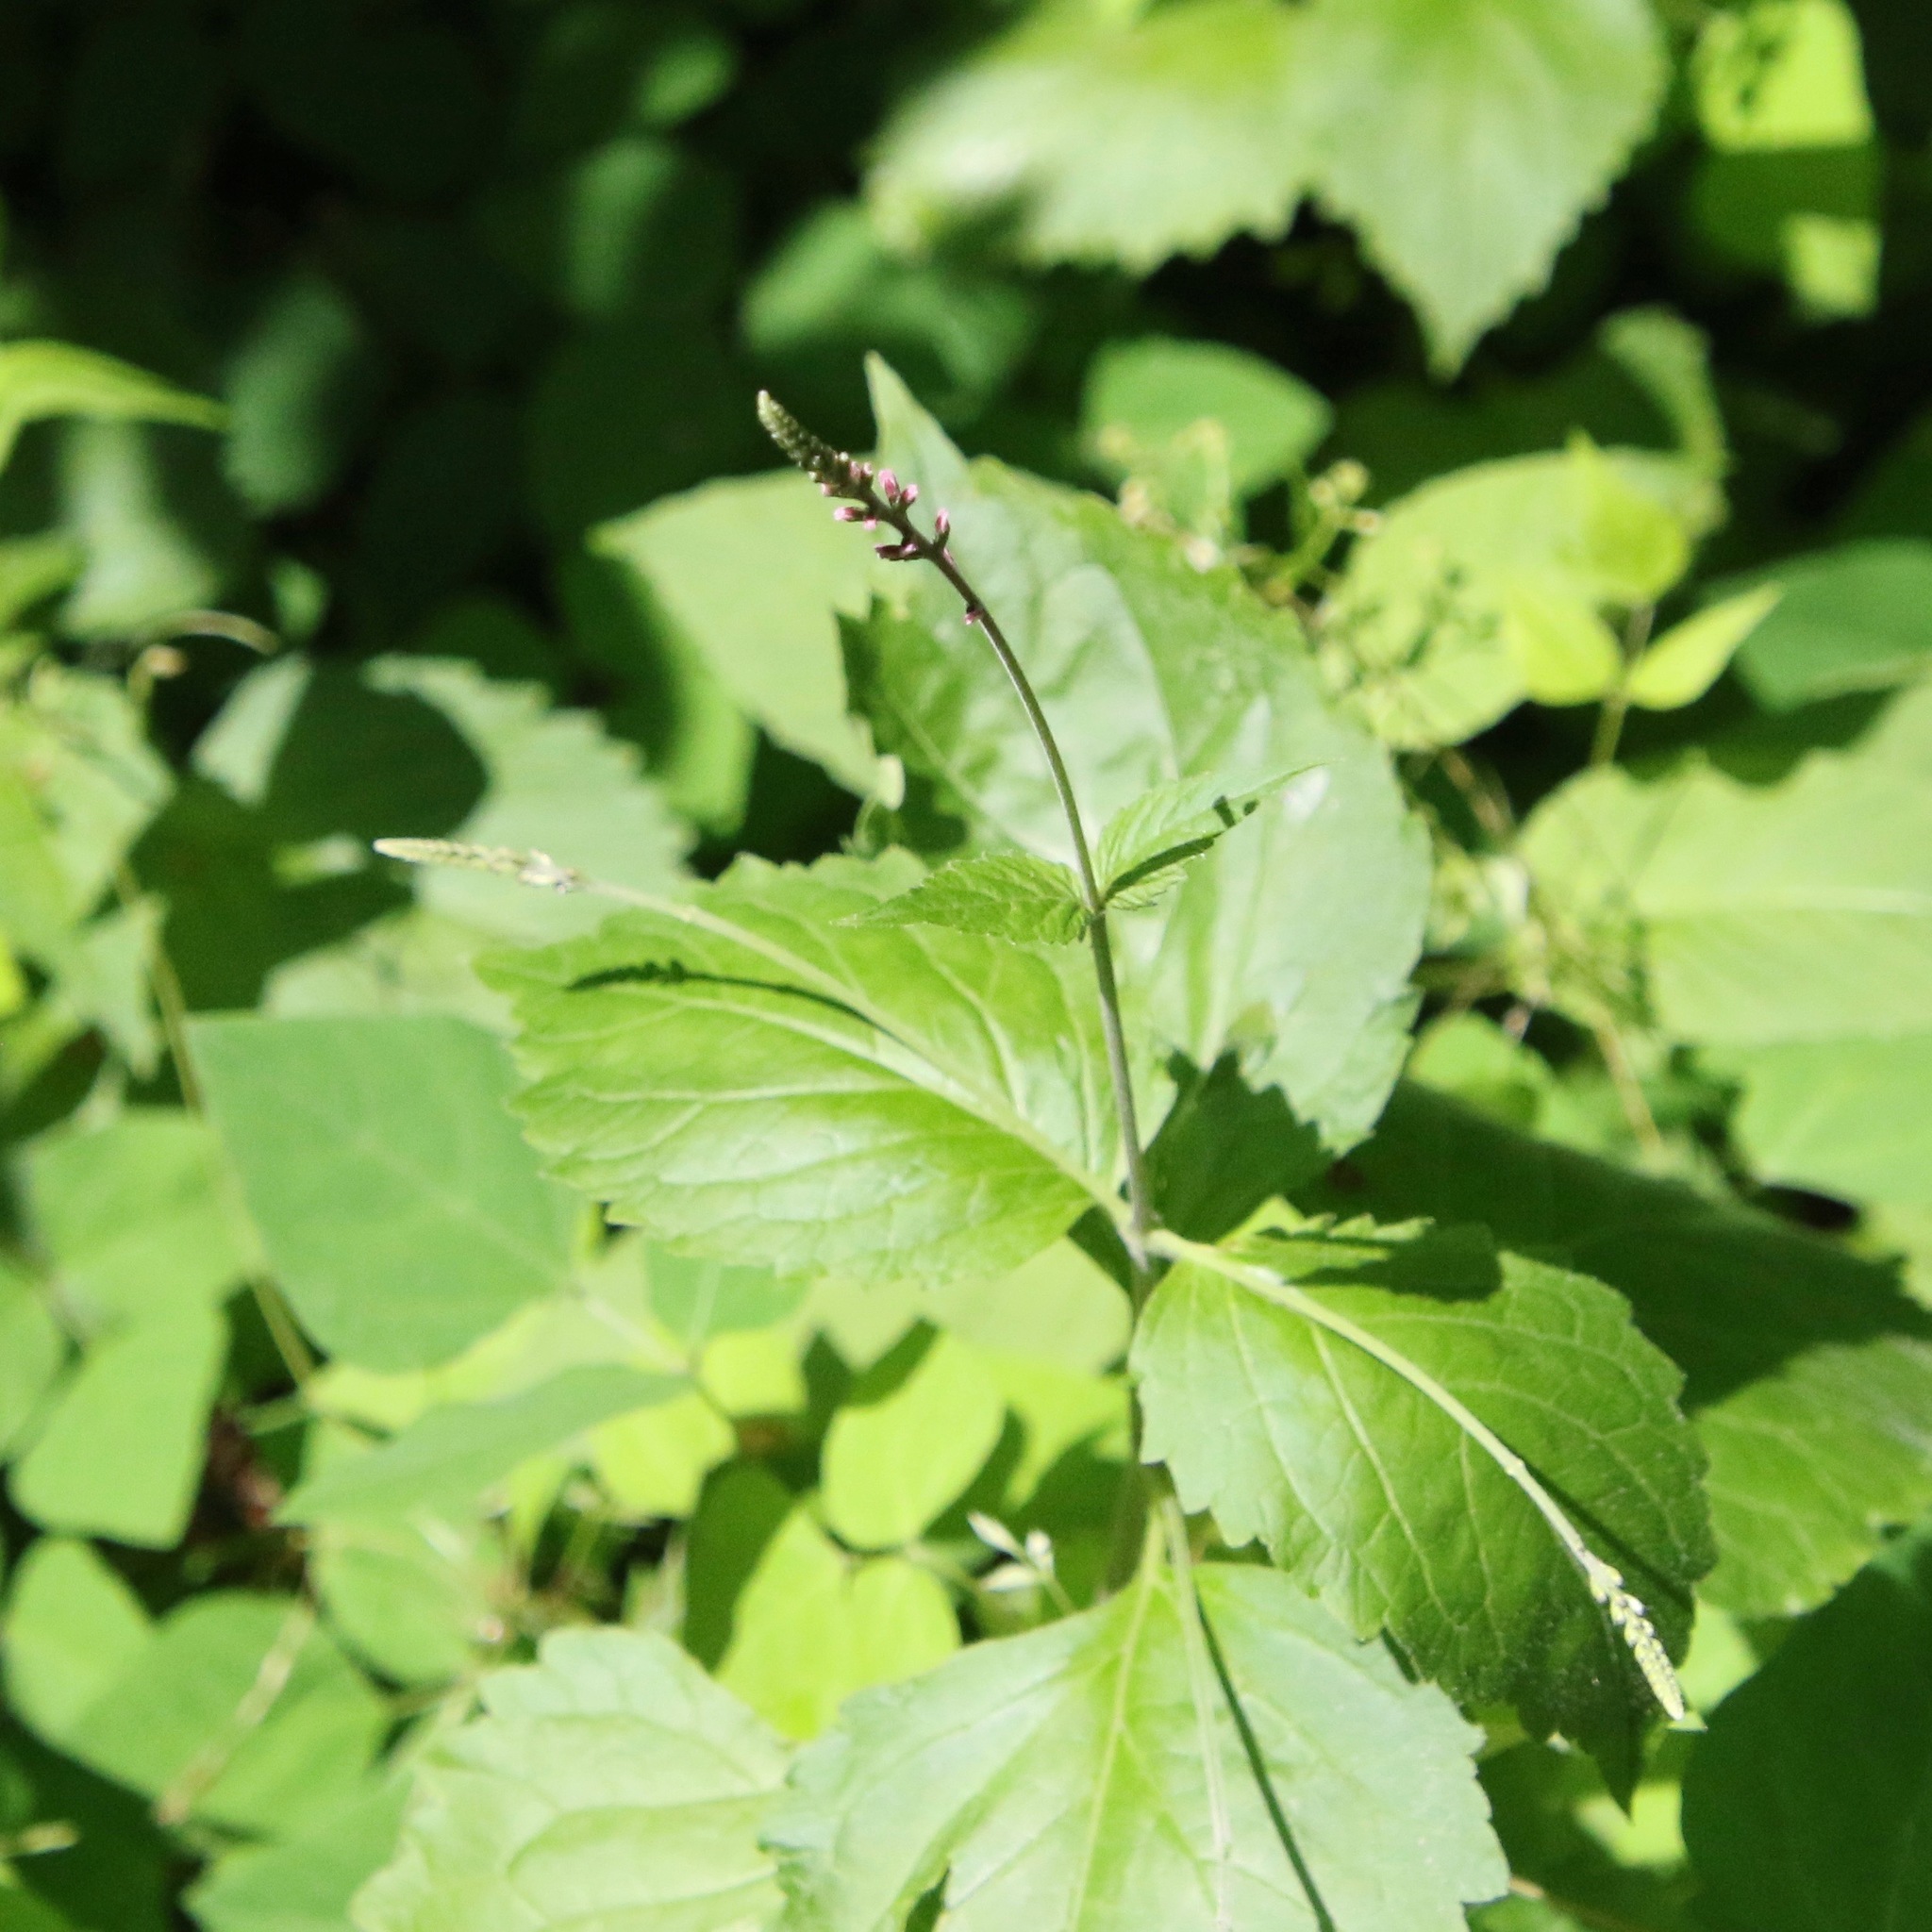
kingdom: Plantae
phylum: Tracheophyta
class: Magnoliopsida
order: Lamiales
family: Phrymaceae
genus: Phryma
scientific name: Phryma leptostachya
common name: American lopseed
